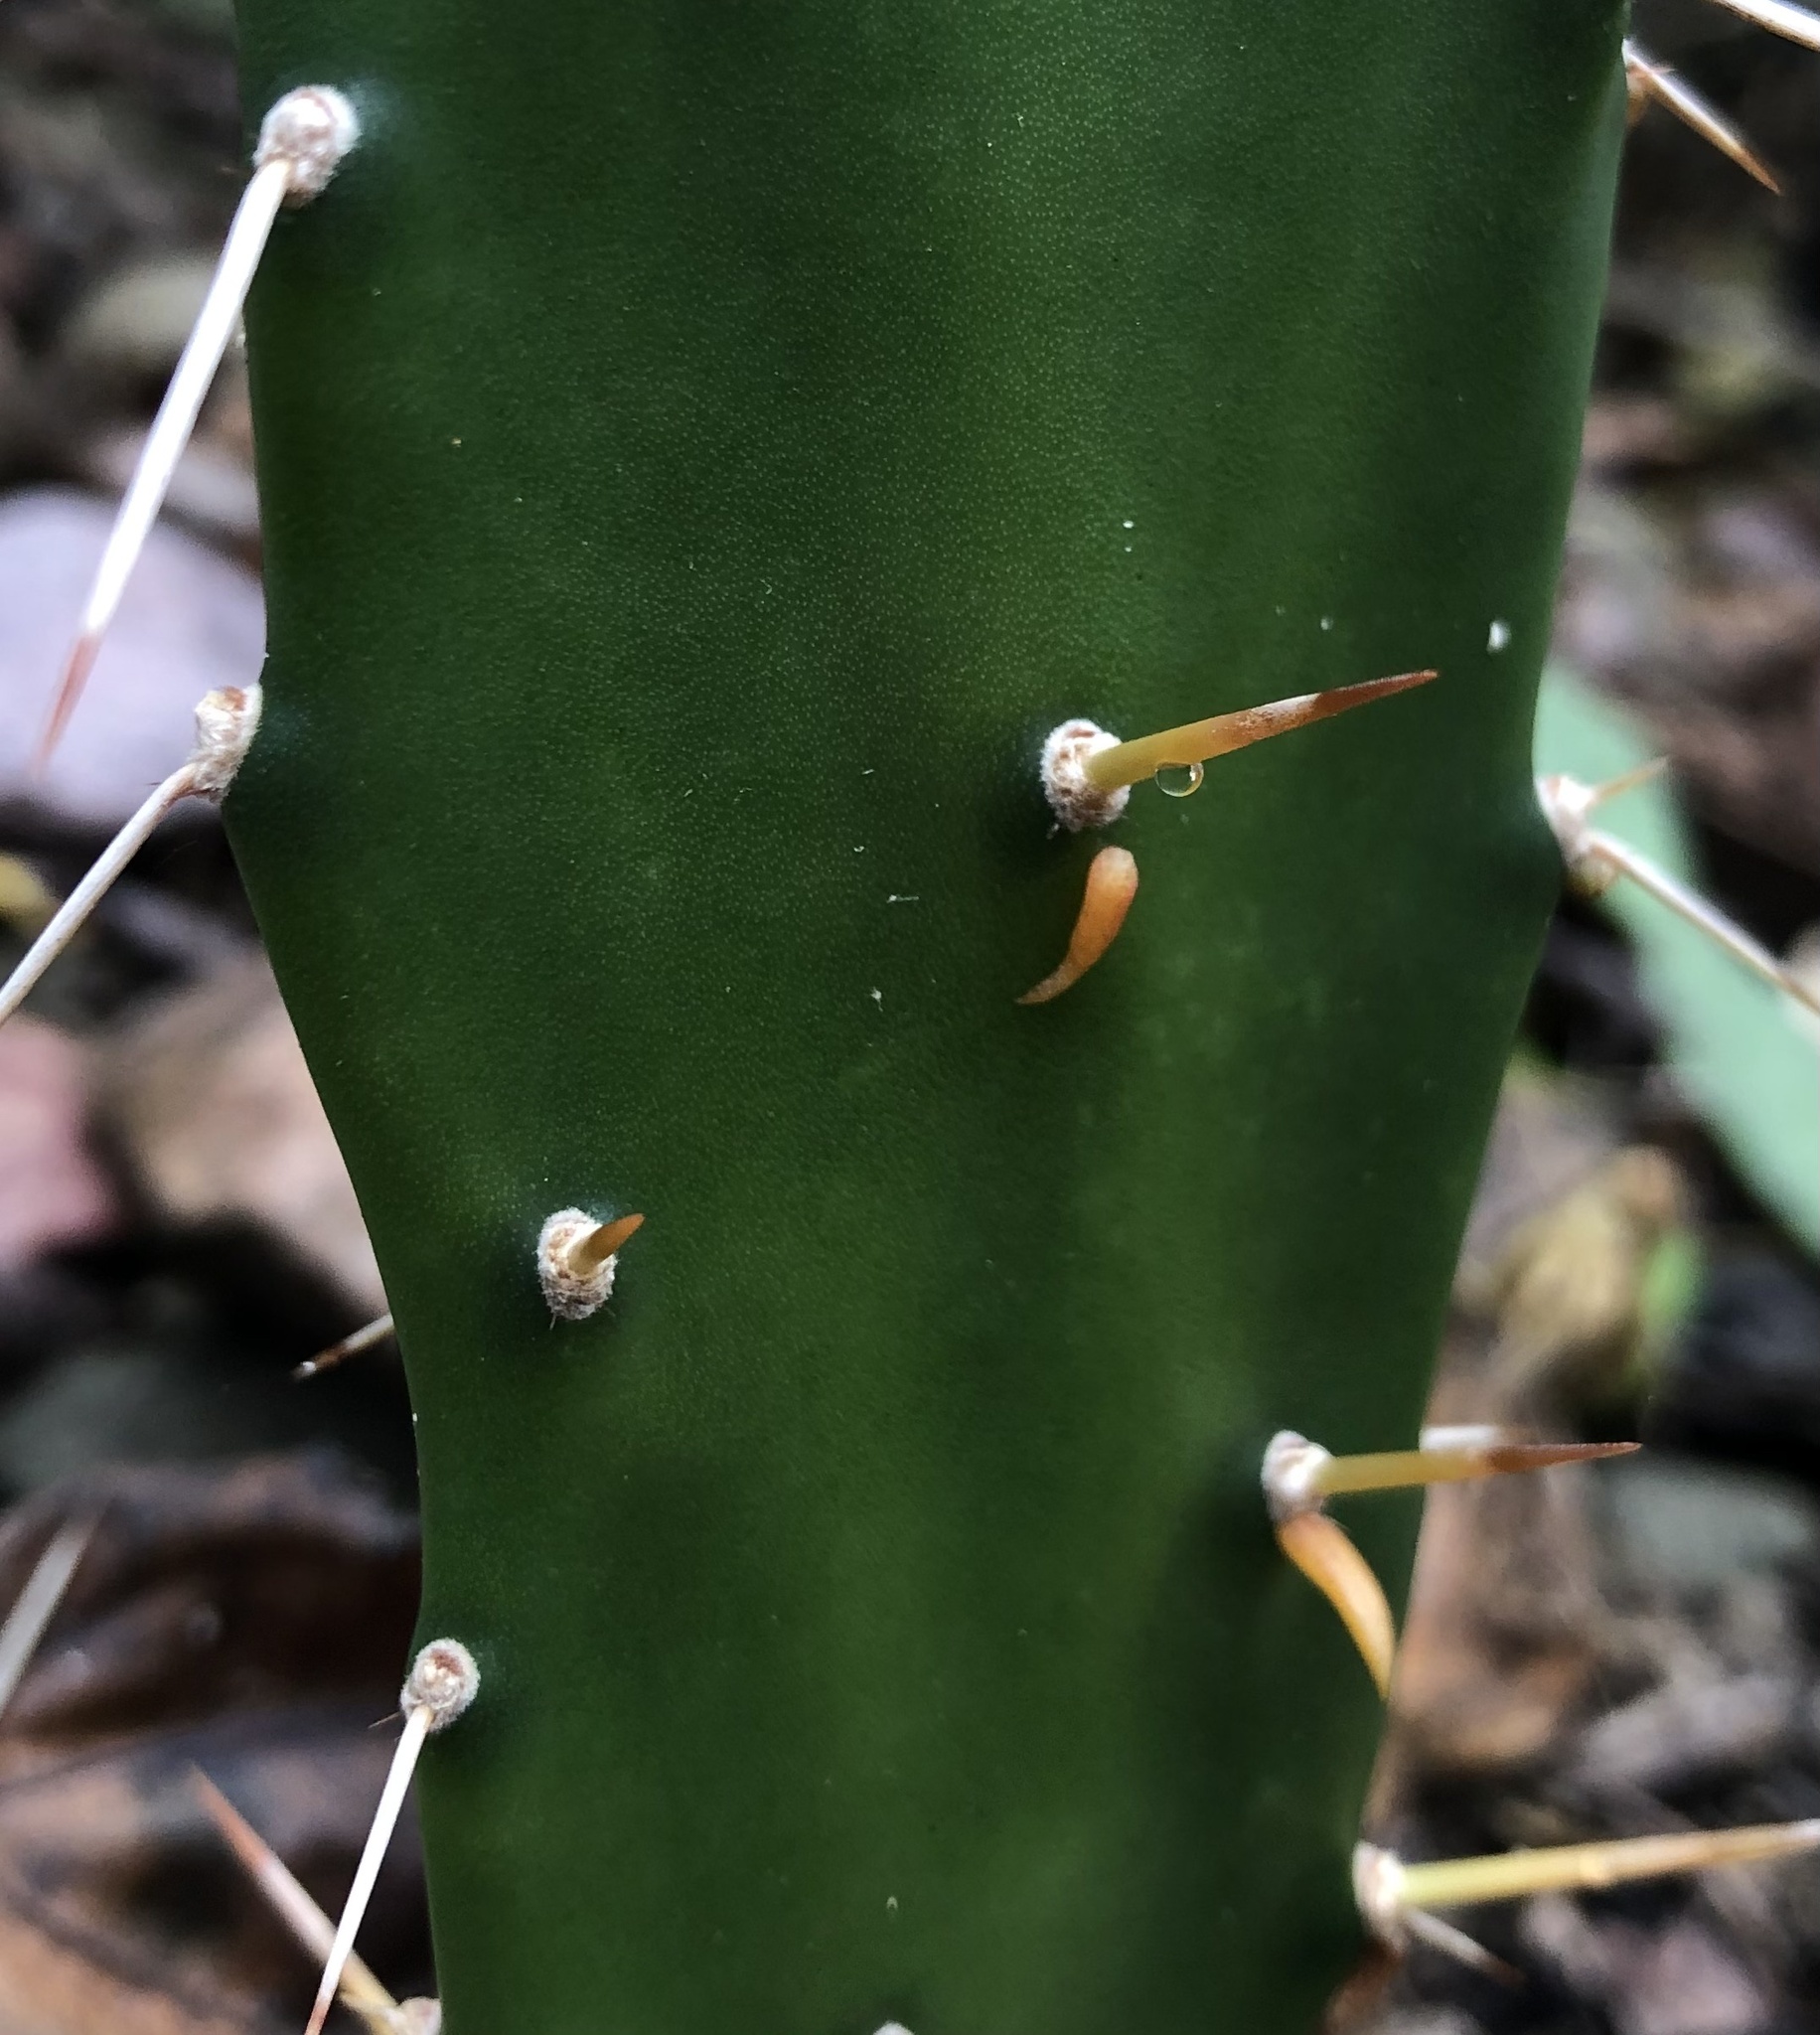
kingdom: Plantae
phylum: Tracheophyta
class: Magnoliopsida
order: Caryophyllales
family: Cactaceae
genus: Opuntia
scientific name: Opuntia monacantha
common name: Common pricklypear
